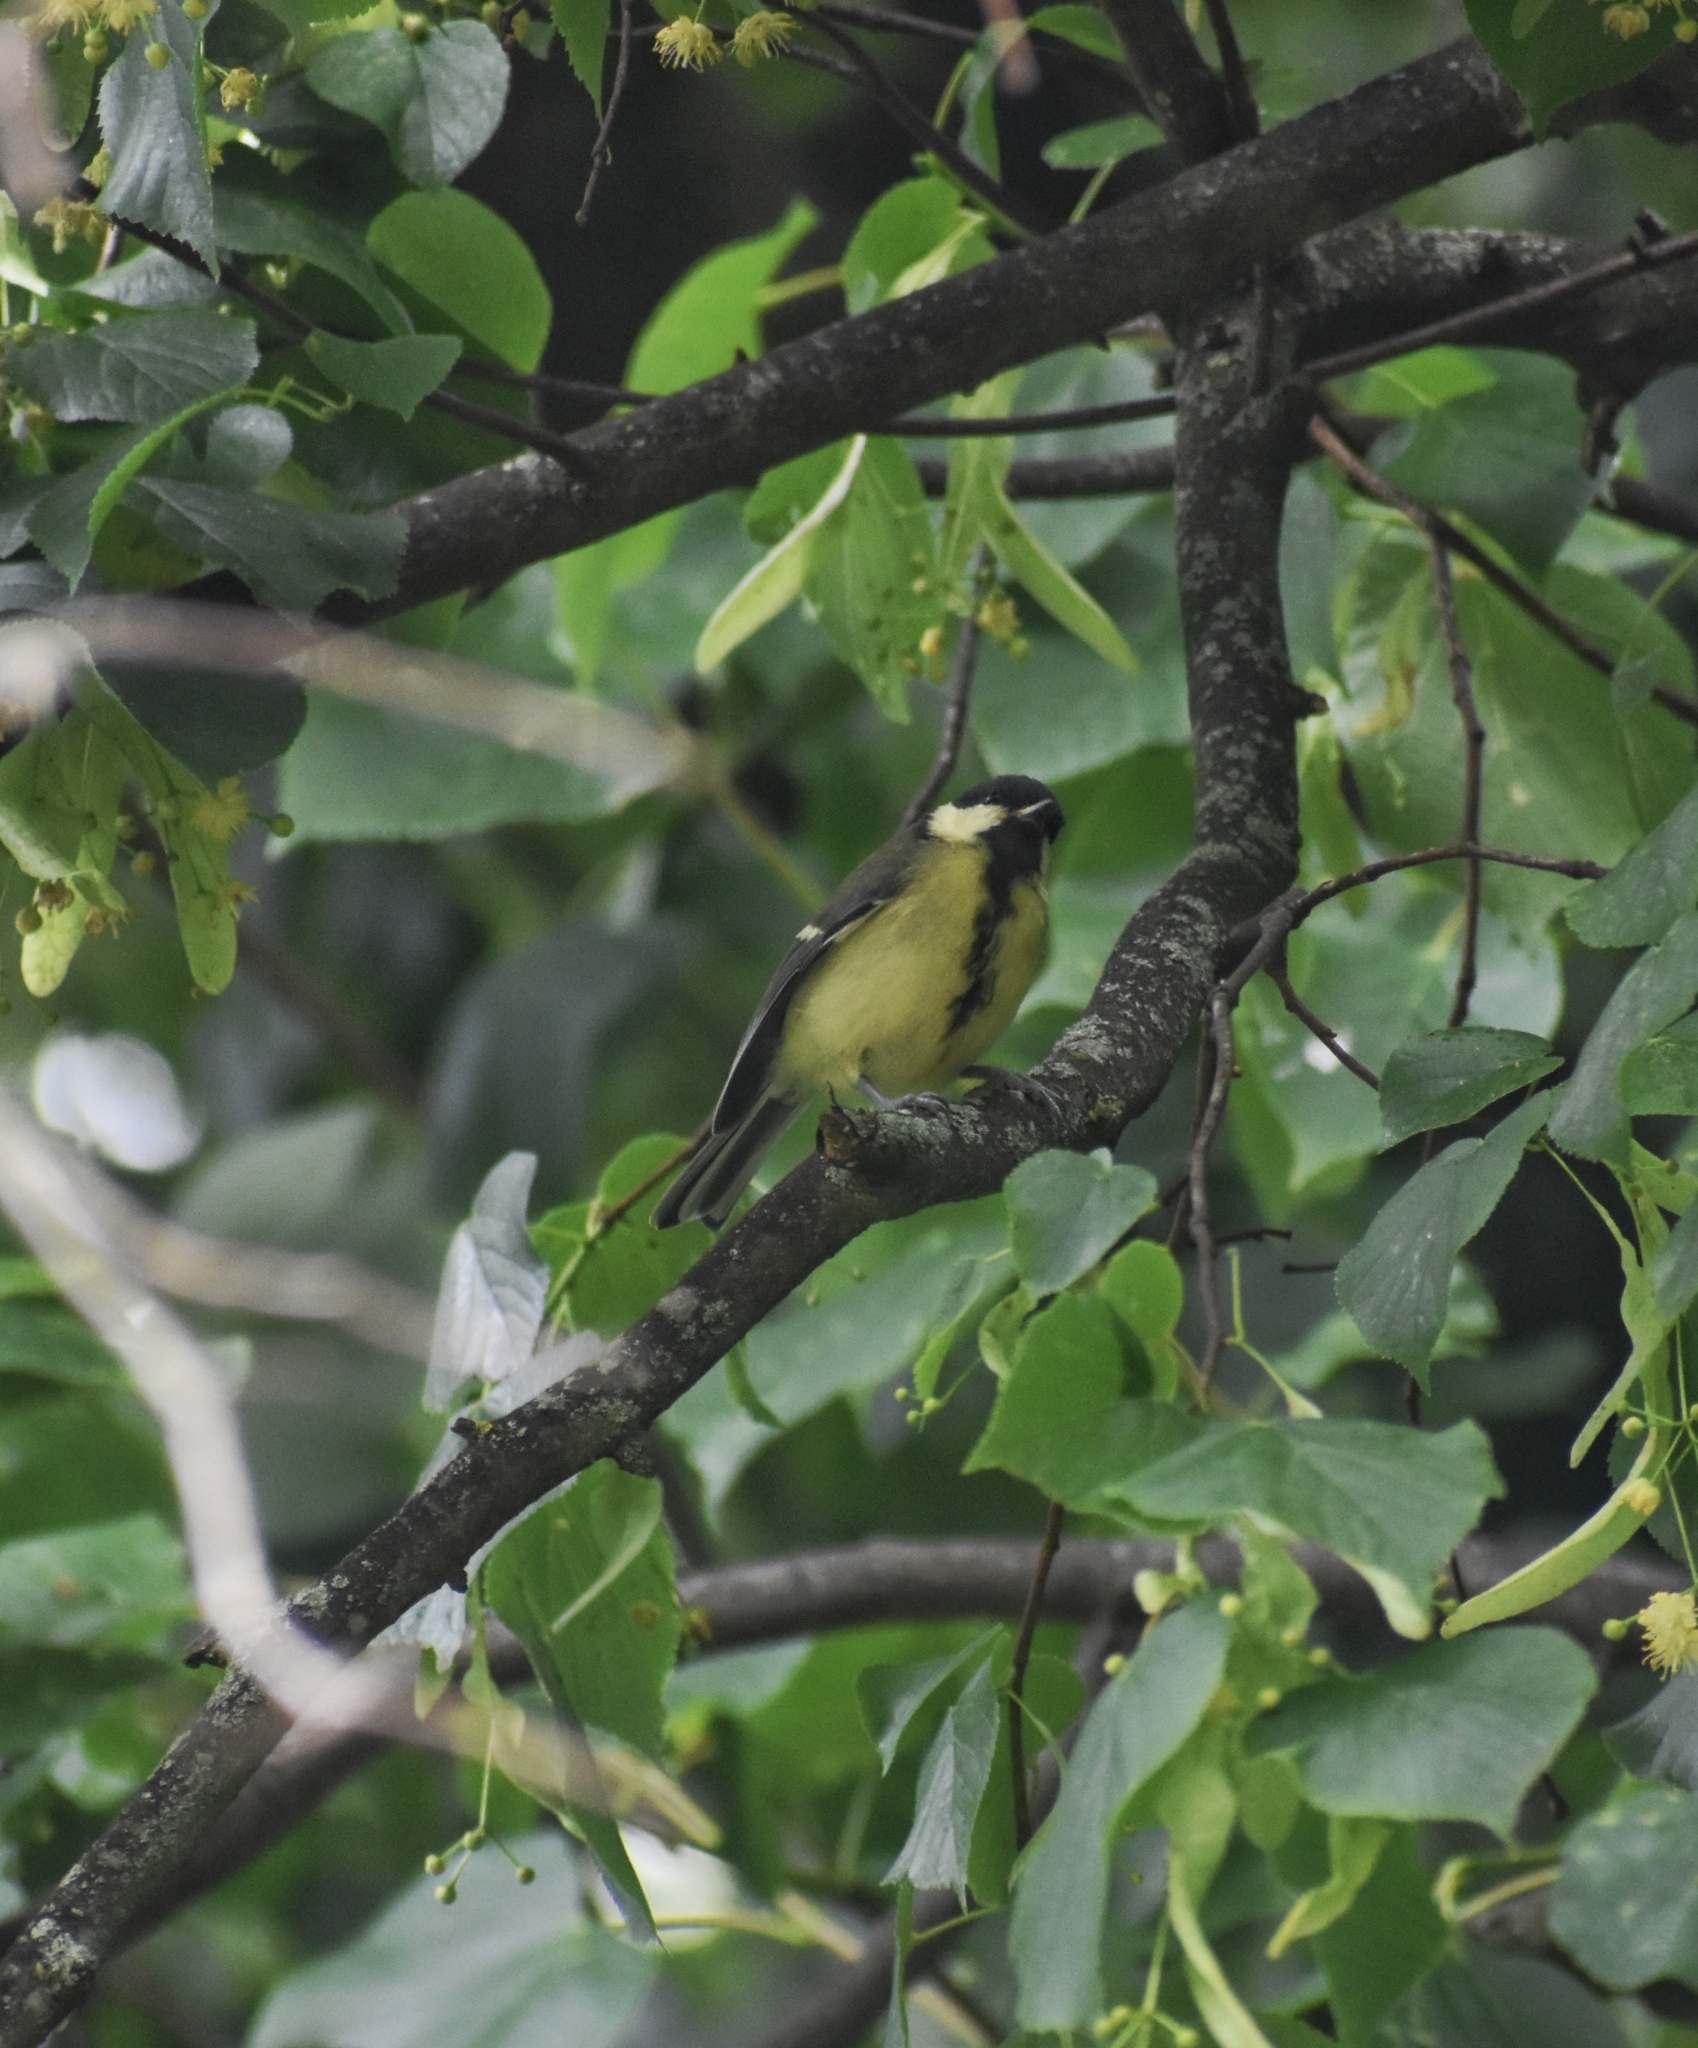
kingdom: Animalia
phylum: Chordata
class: Aves
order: Passeriformes
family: Paridae
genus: Parus
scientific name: Parus major
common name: Great tit
